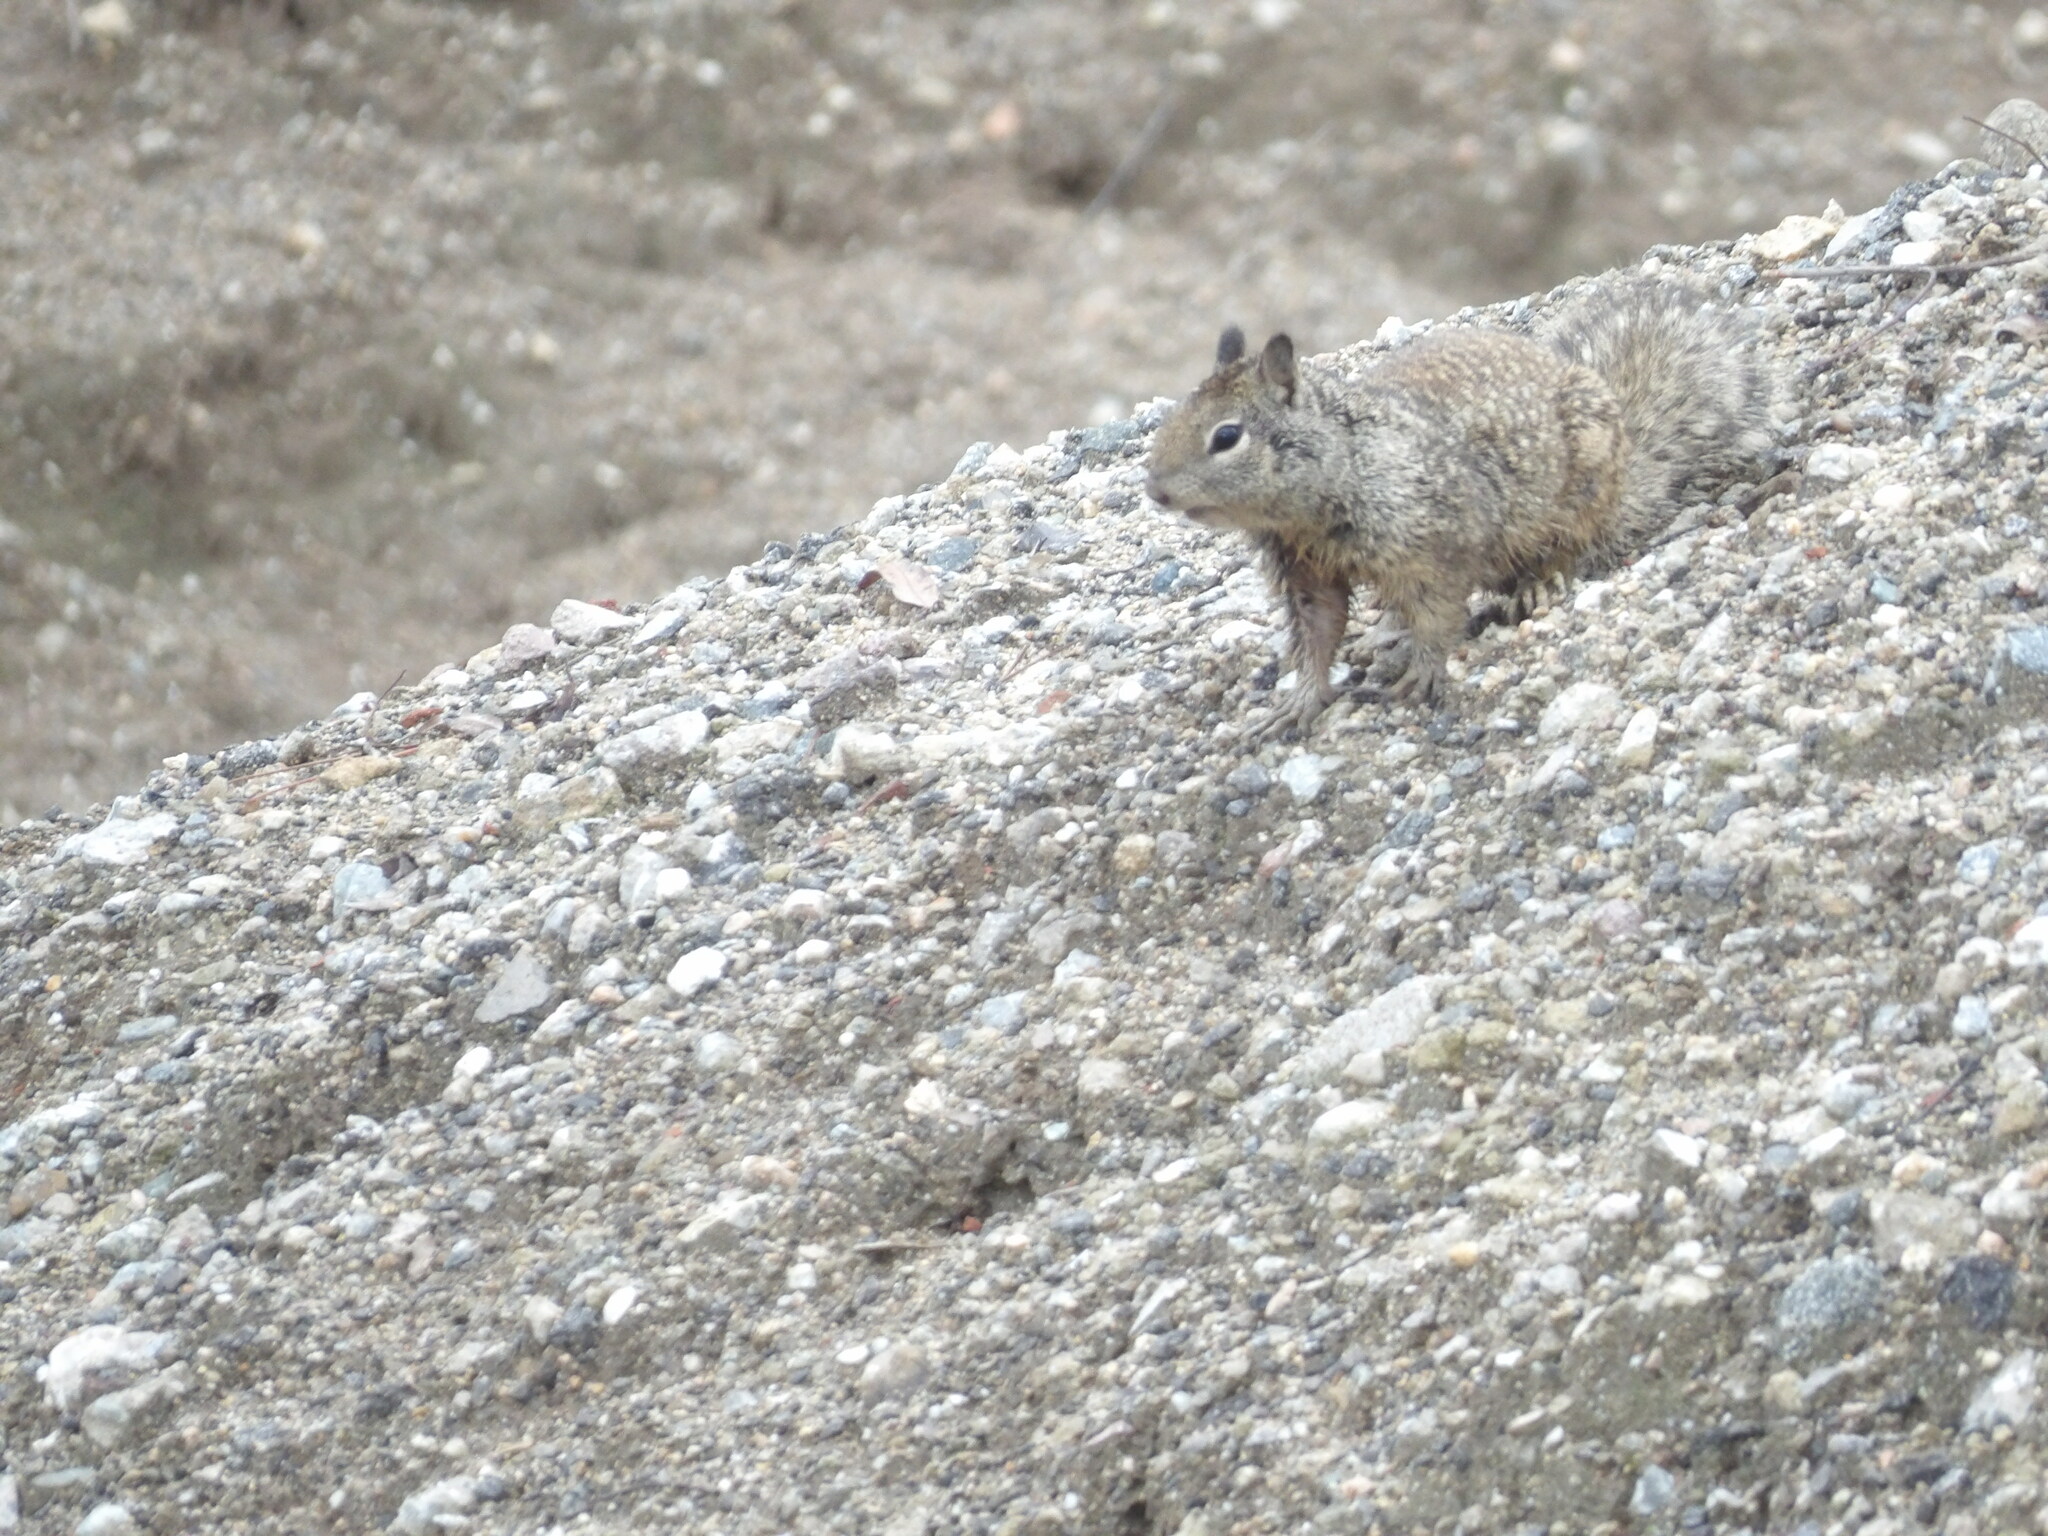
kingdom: Animalia
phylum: Chordata
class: Mammalia
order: Rodentia
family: Sciuridae
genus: Otospermophilus
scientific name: Otospermophilus beecheyi
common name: California ground squirrel
